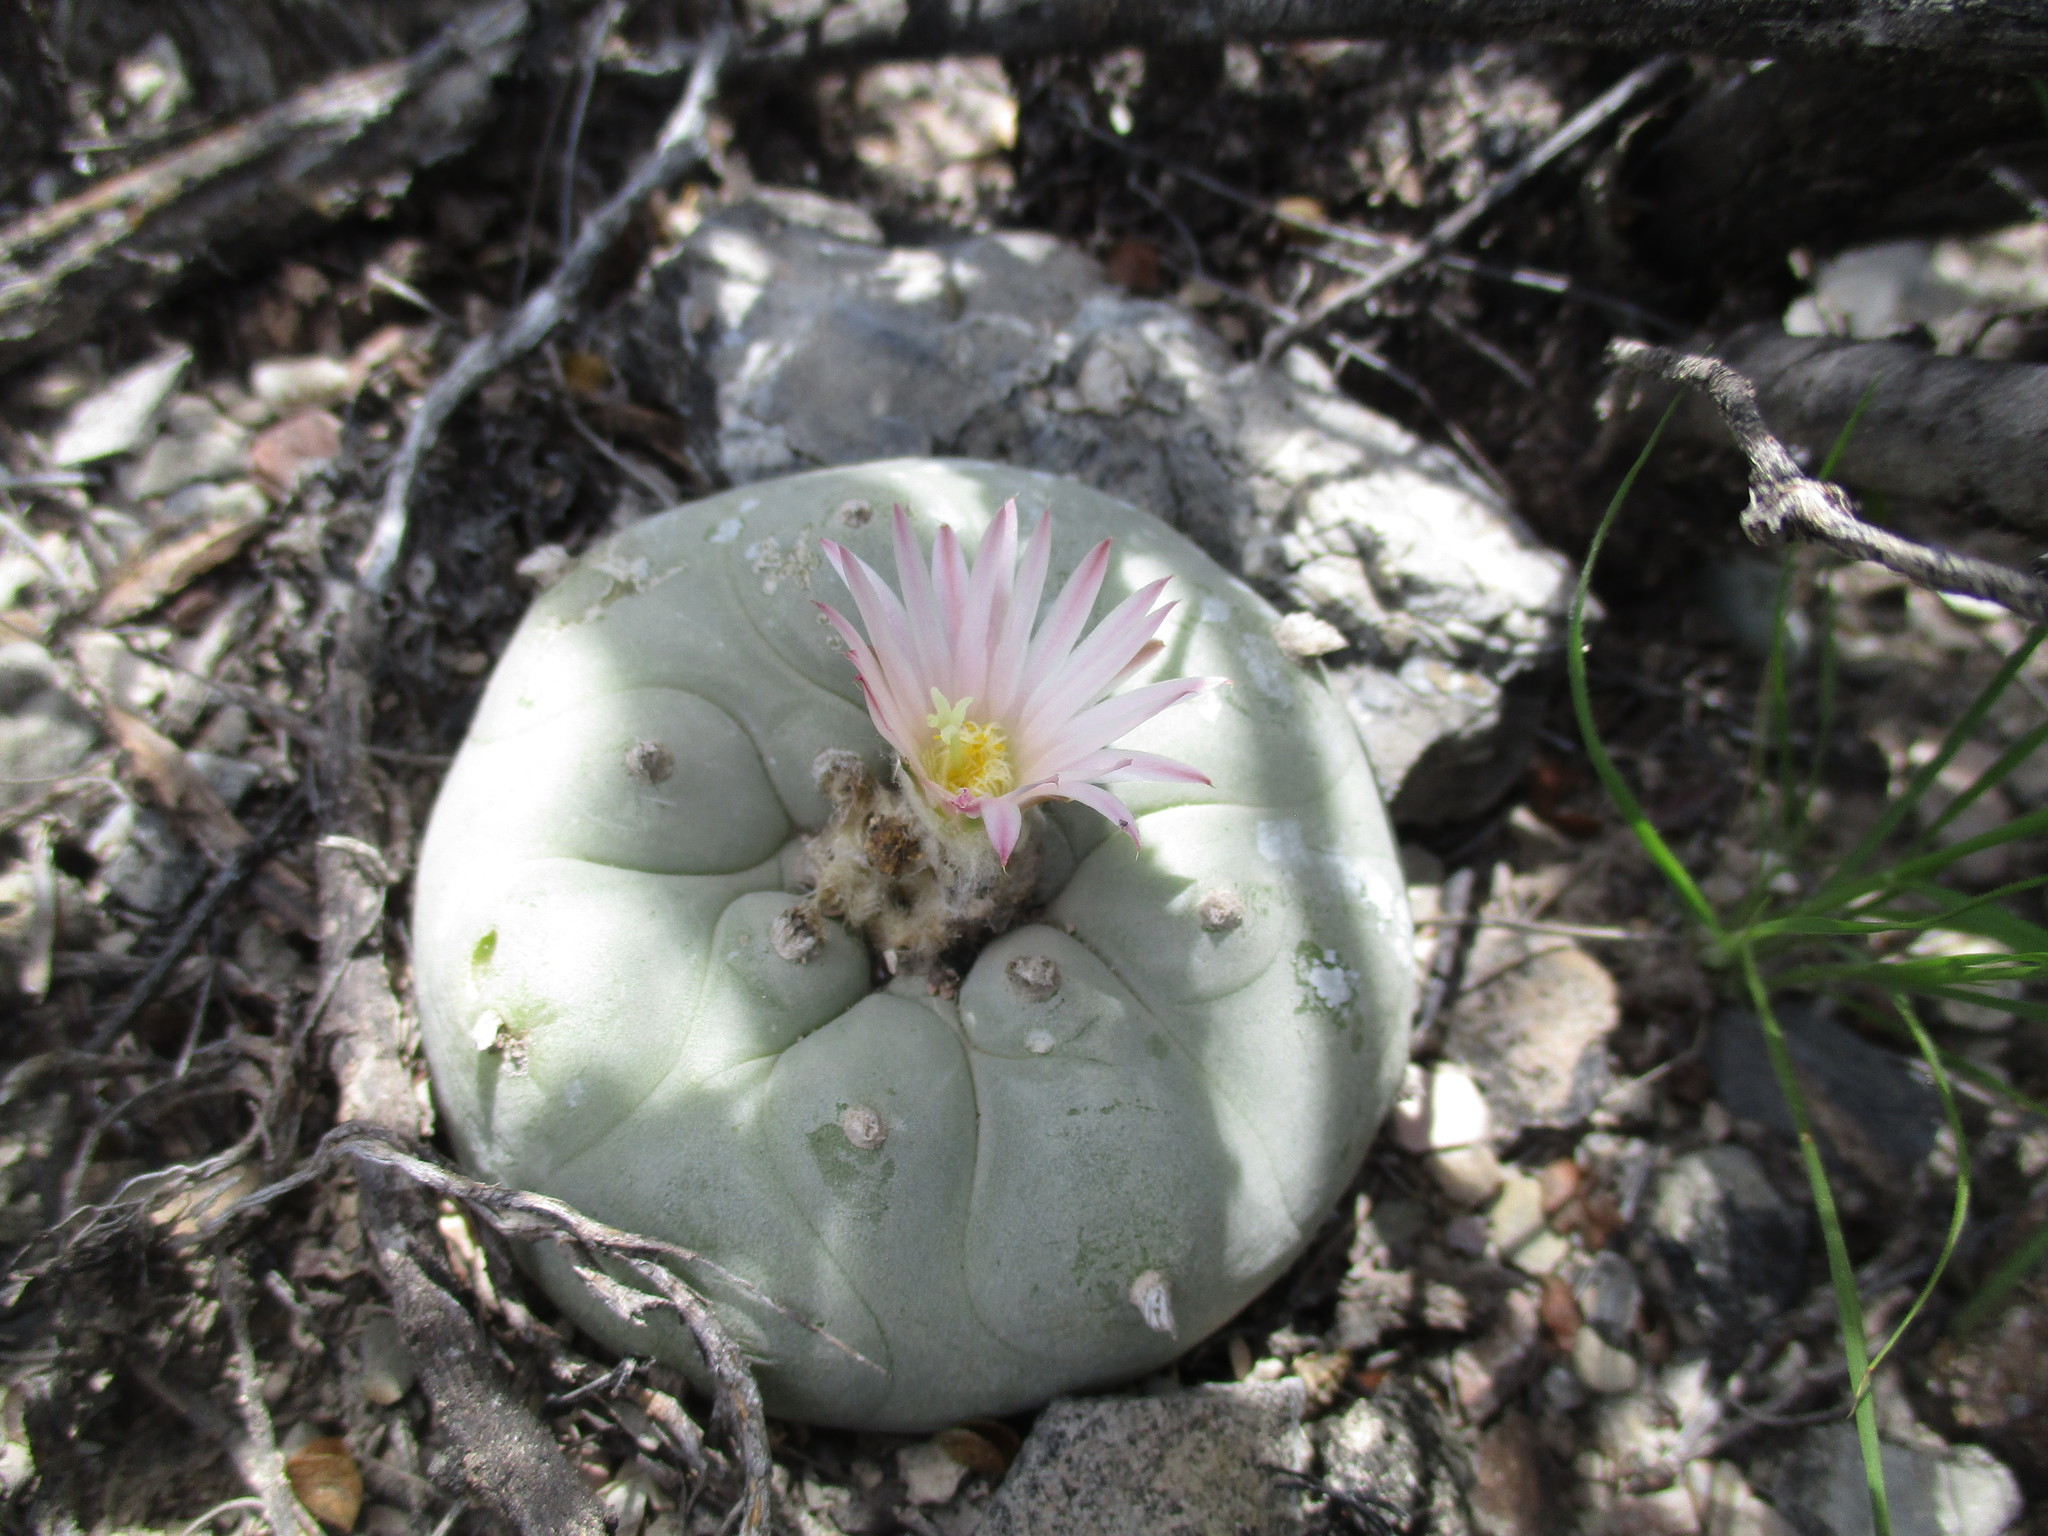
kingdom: Plantae
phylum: Tracheophyta
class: Magnoliopsida
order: Caryophyllales
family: Cactaceae
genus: Lophophora
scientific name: Lophophora diffusa
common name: Peyote
